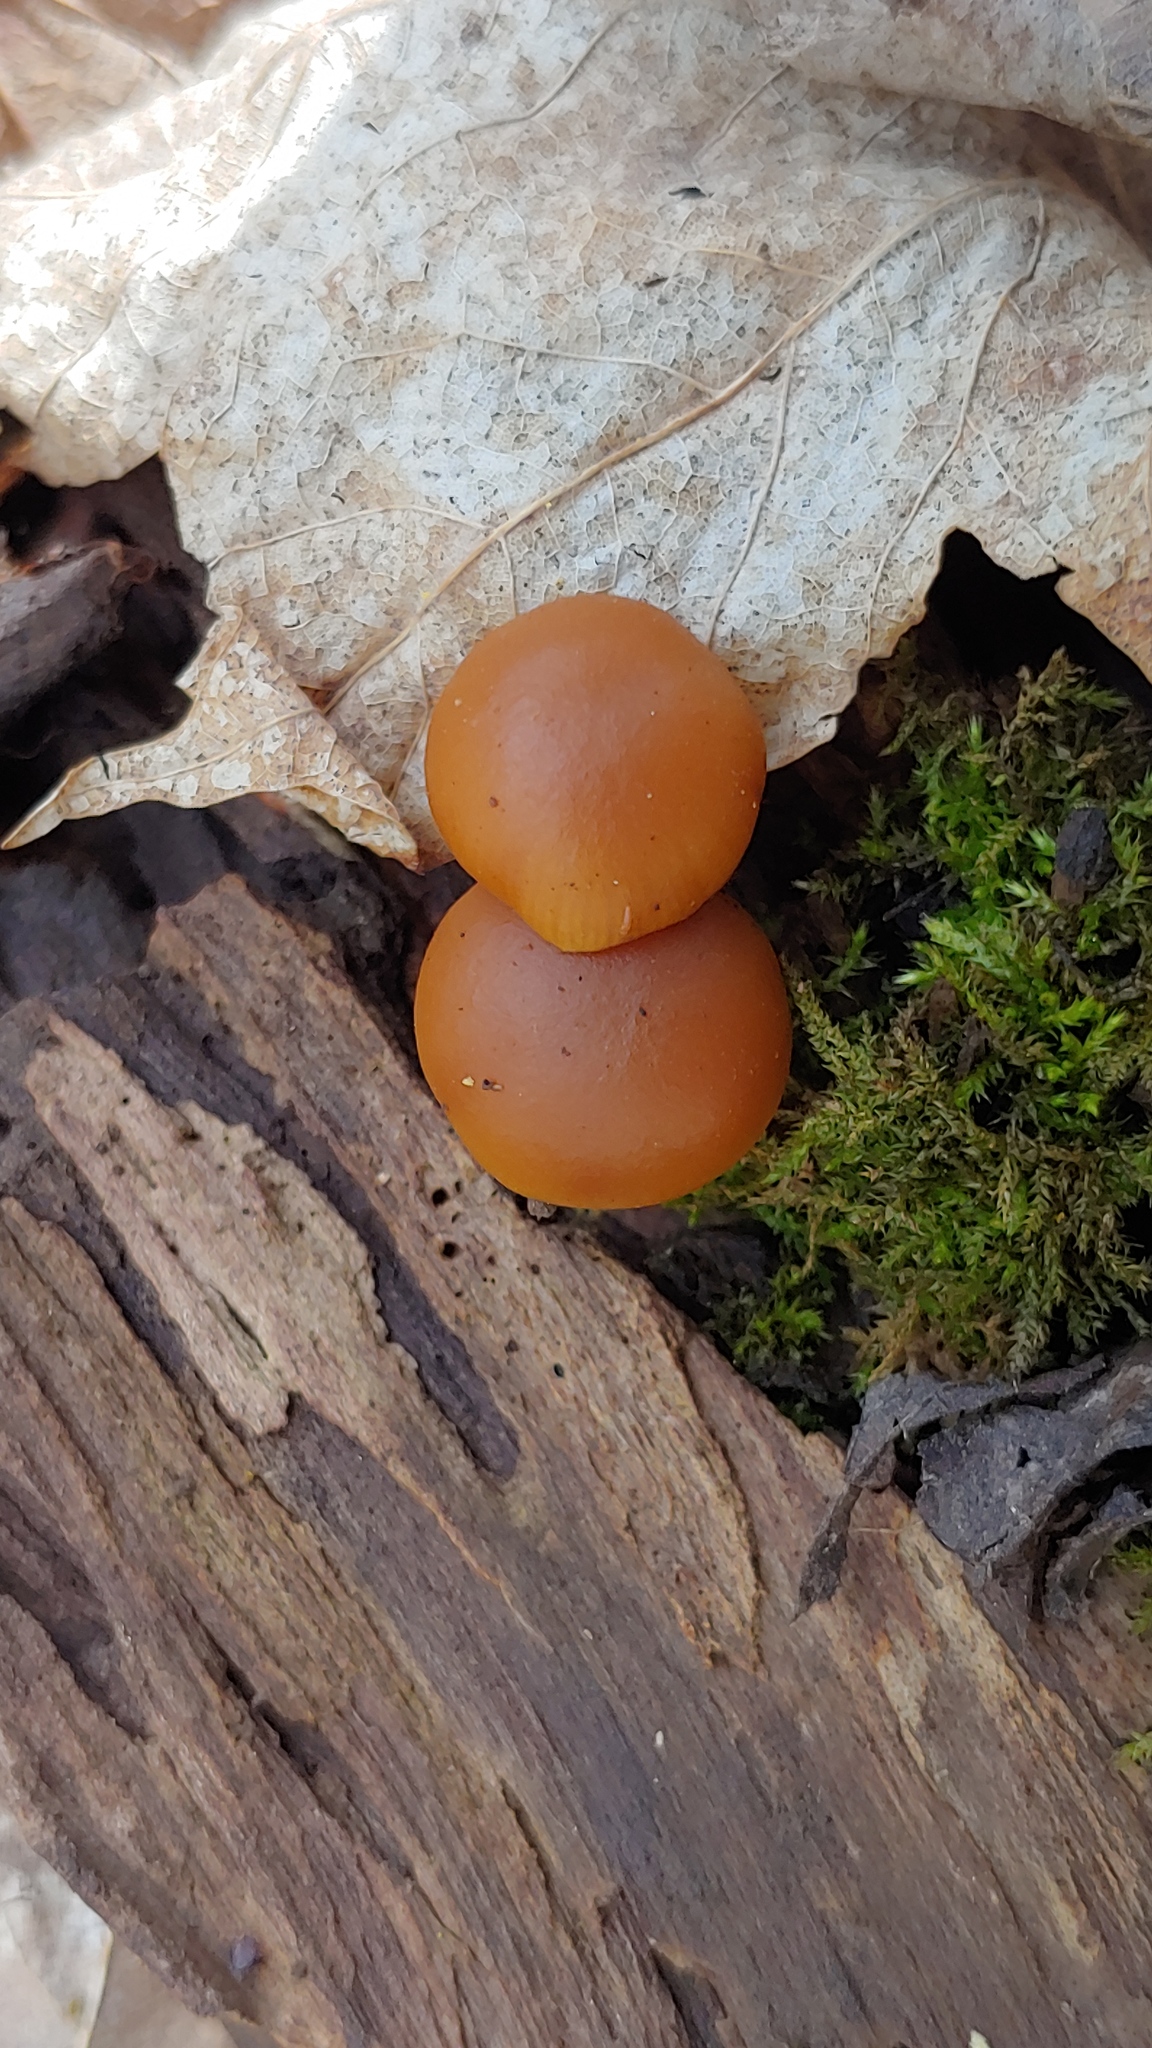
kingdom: Fungi
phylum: Basidiomycota
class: Agaricomycetes
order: Agaricales
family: Hymenogastraceae
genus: Galerina
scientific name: Galerina marginata
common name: Funeral bell
